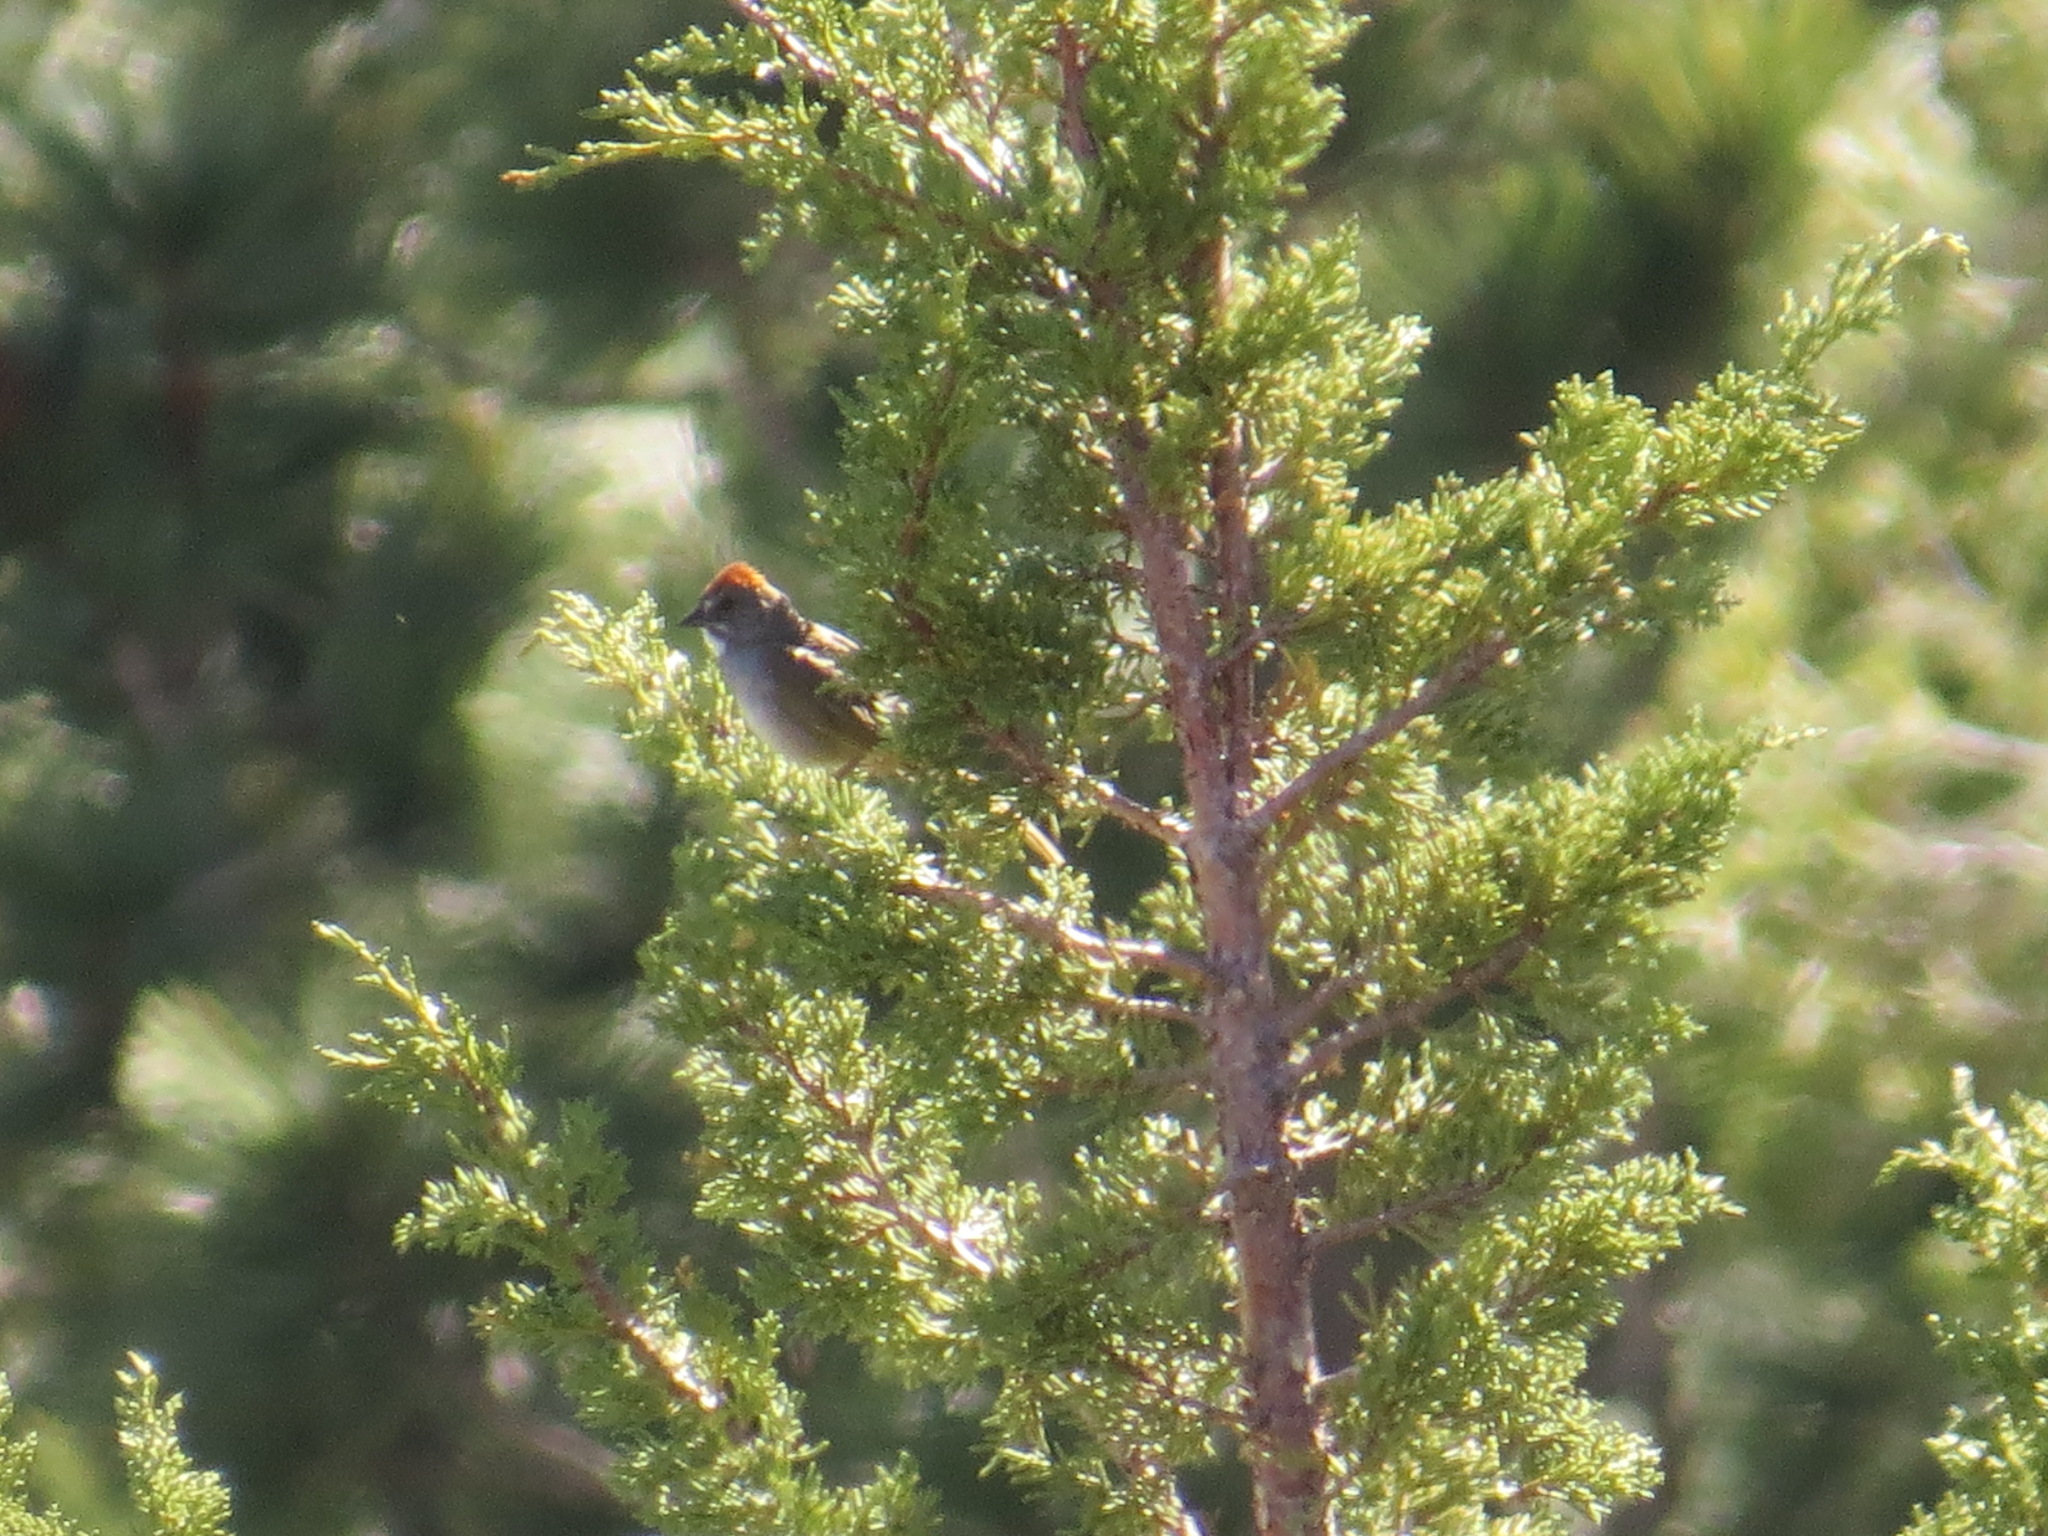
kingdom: Animalia
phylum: Chordata
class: Aves
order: Passeriformes
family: Passerellidae
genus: Pipilo
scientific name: Pipilo chlorurus
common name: Green-tailed towhee
